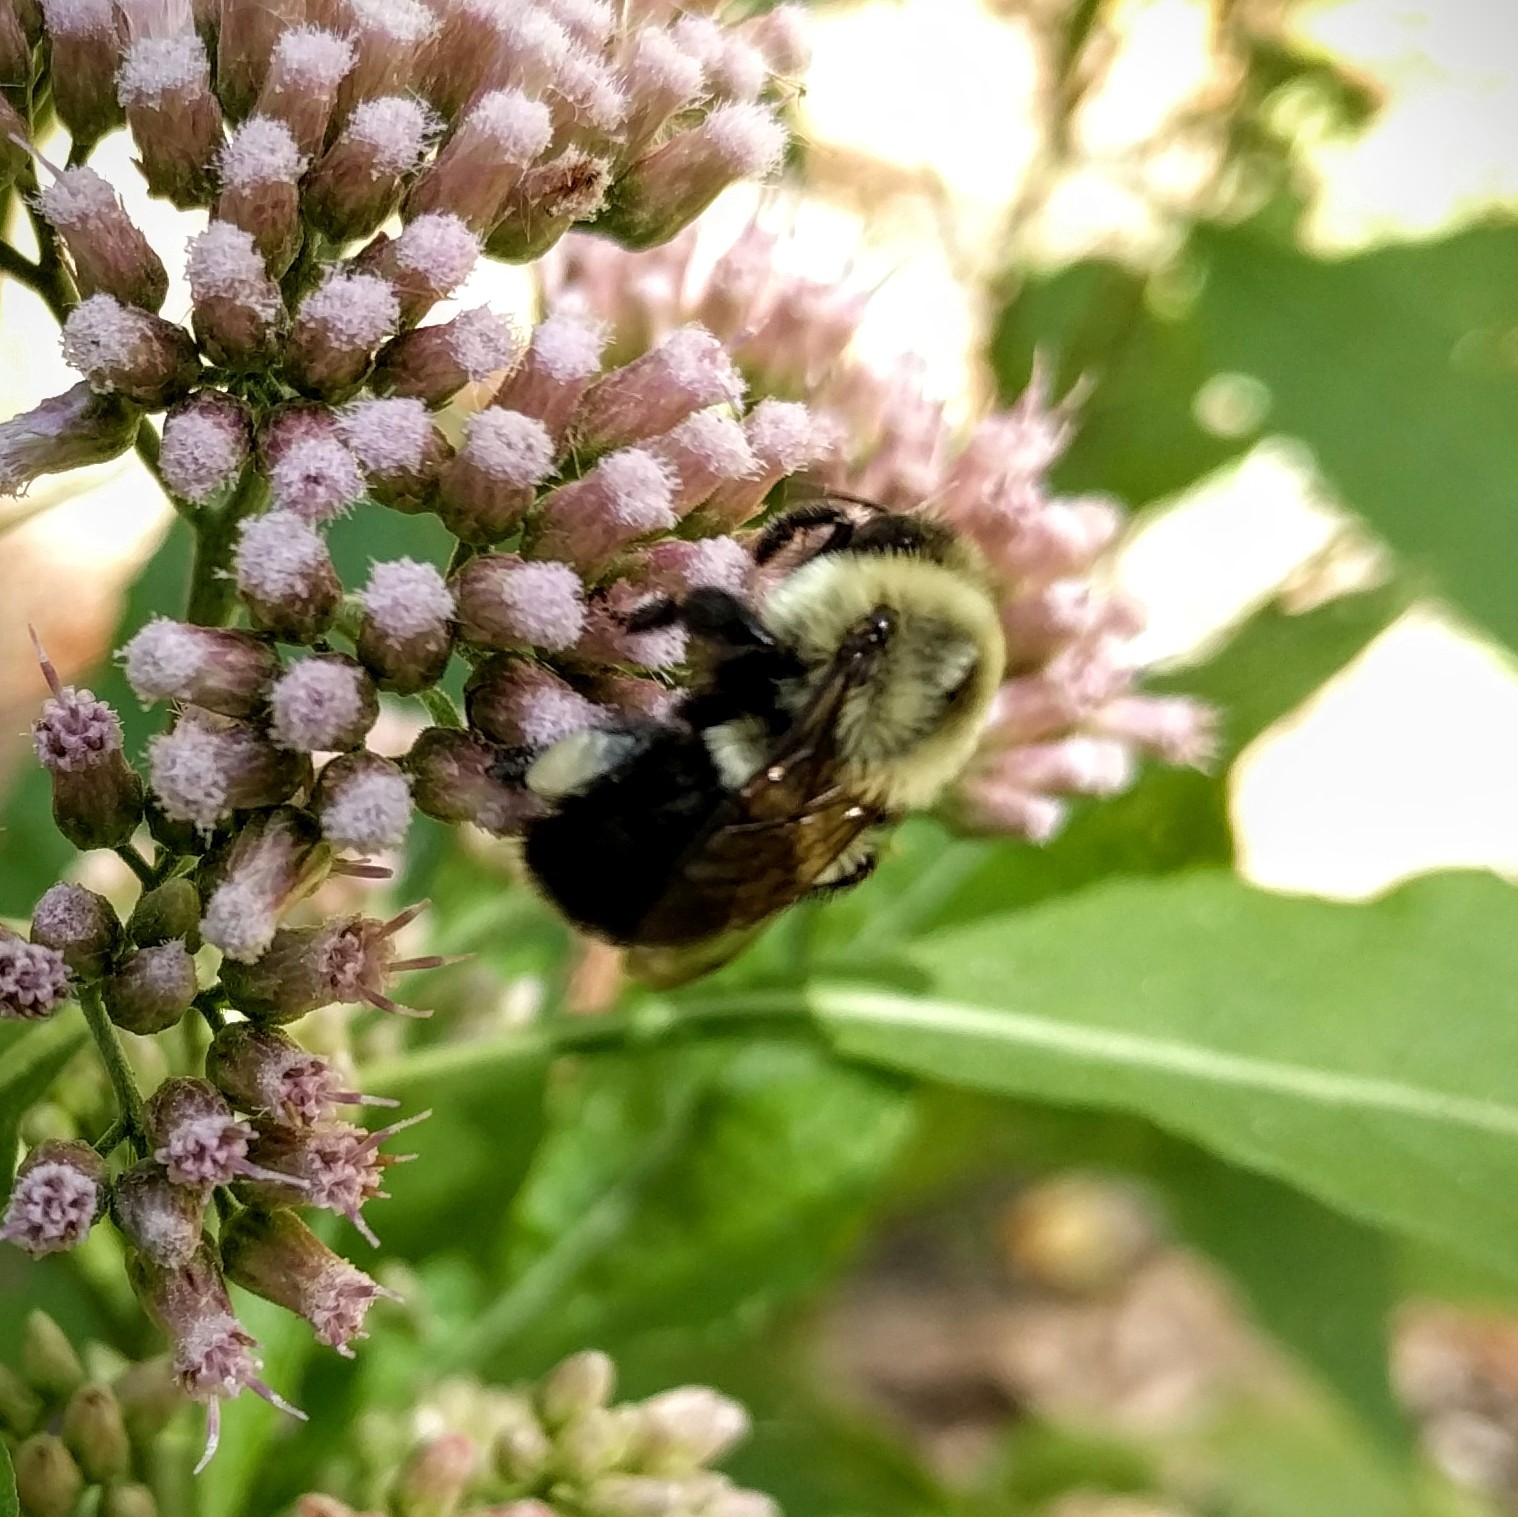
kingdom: Animalia
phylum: Arthropoda
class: Insecta
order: Hymenoptera
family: Apidae
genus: Bombus
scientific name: Bombus impatiens
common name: Common eastern bumble bee
